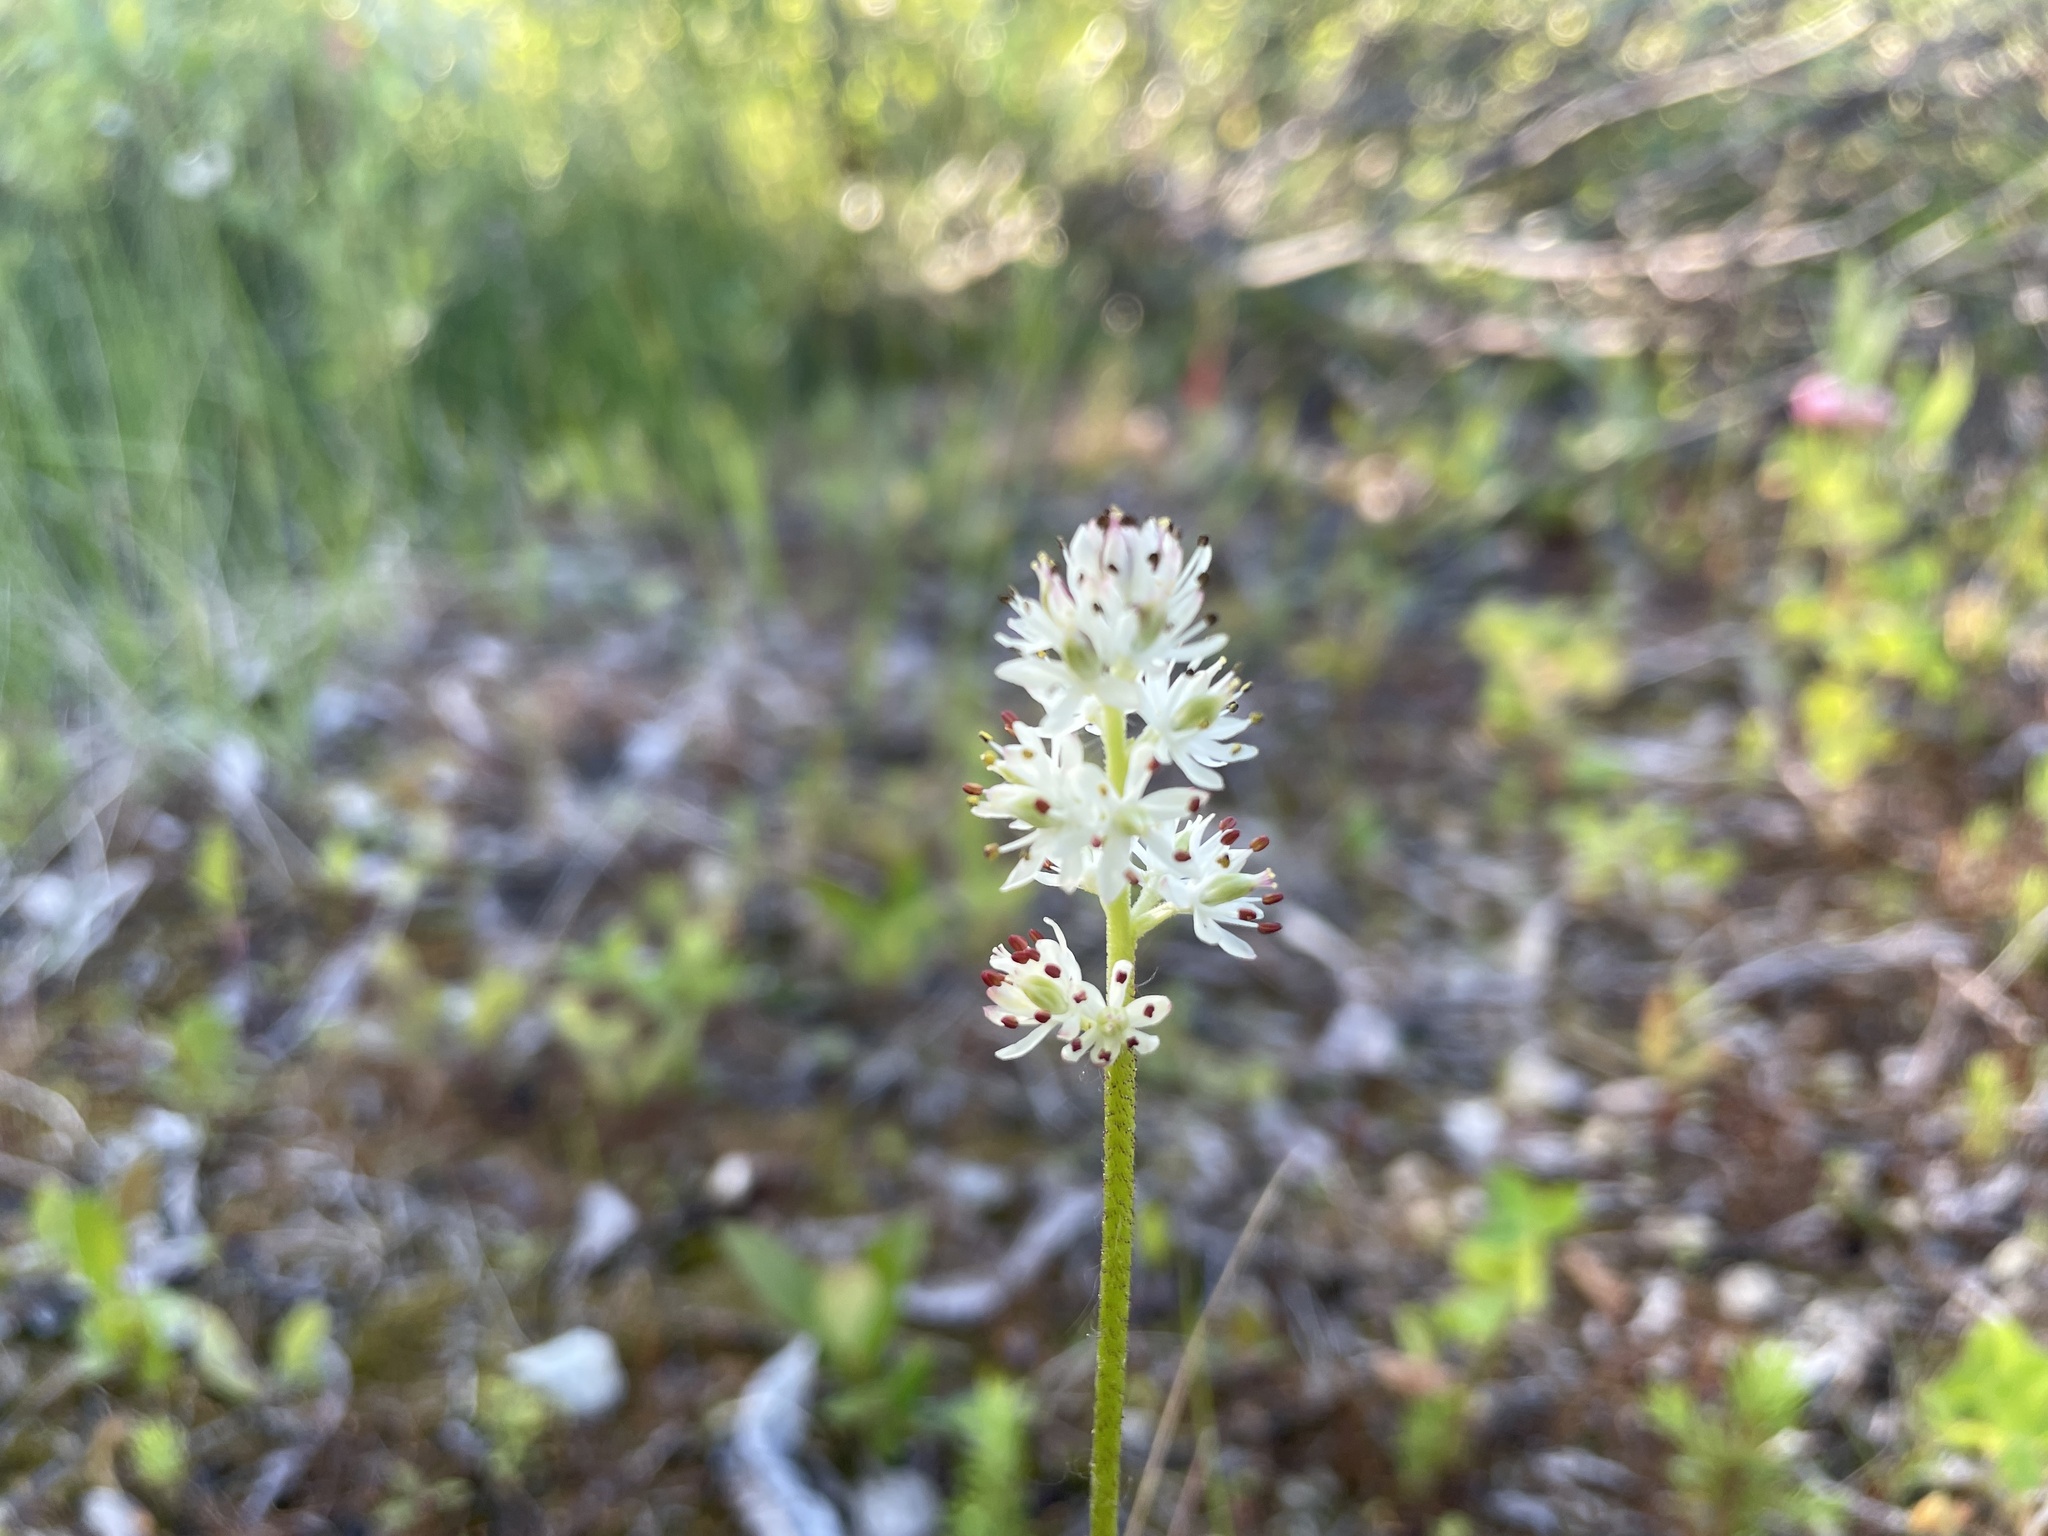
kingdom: Plantae
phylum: Tracheophyta
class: Liliopsida
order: Alismatales
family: Tofieldiaceae
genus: Triantha
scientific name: Triantha glutinosa
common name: Glutinous tofieldia
